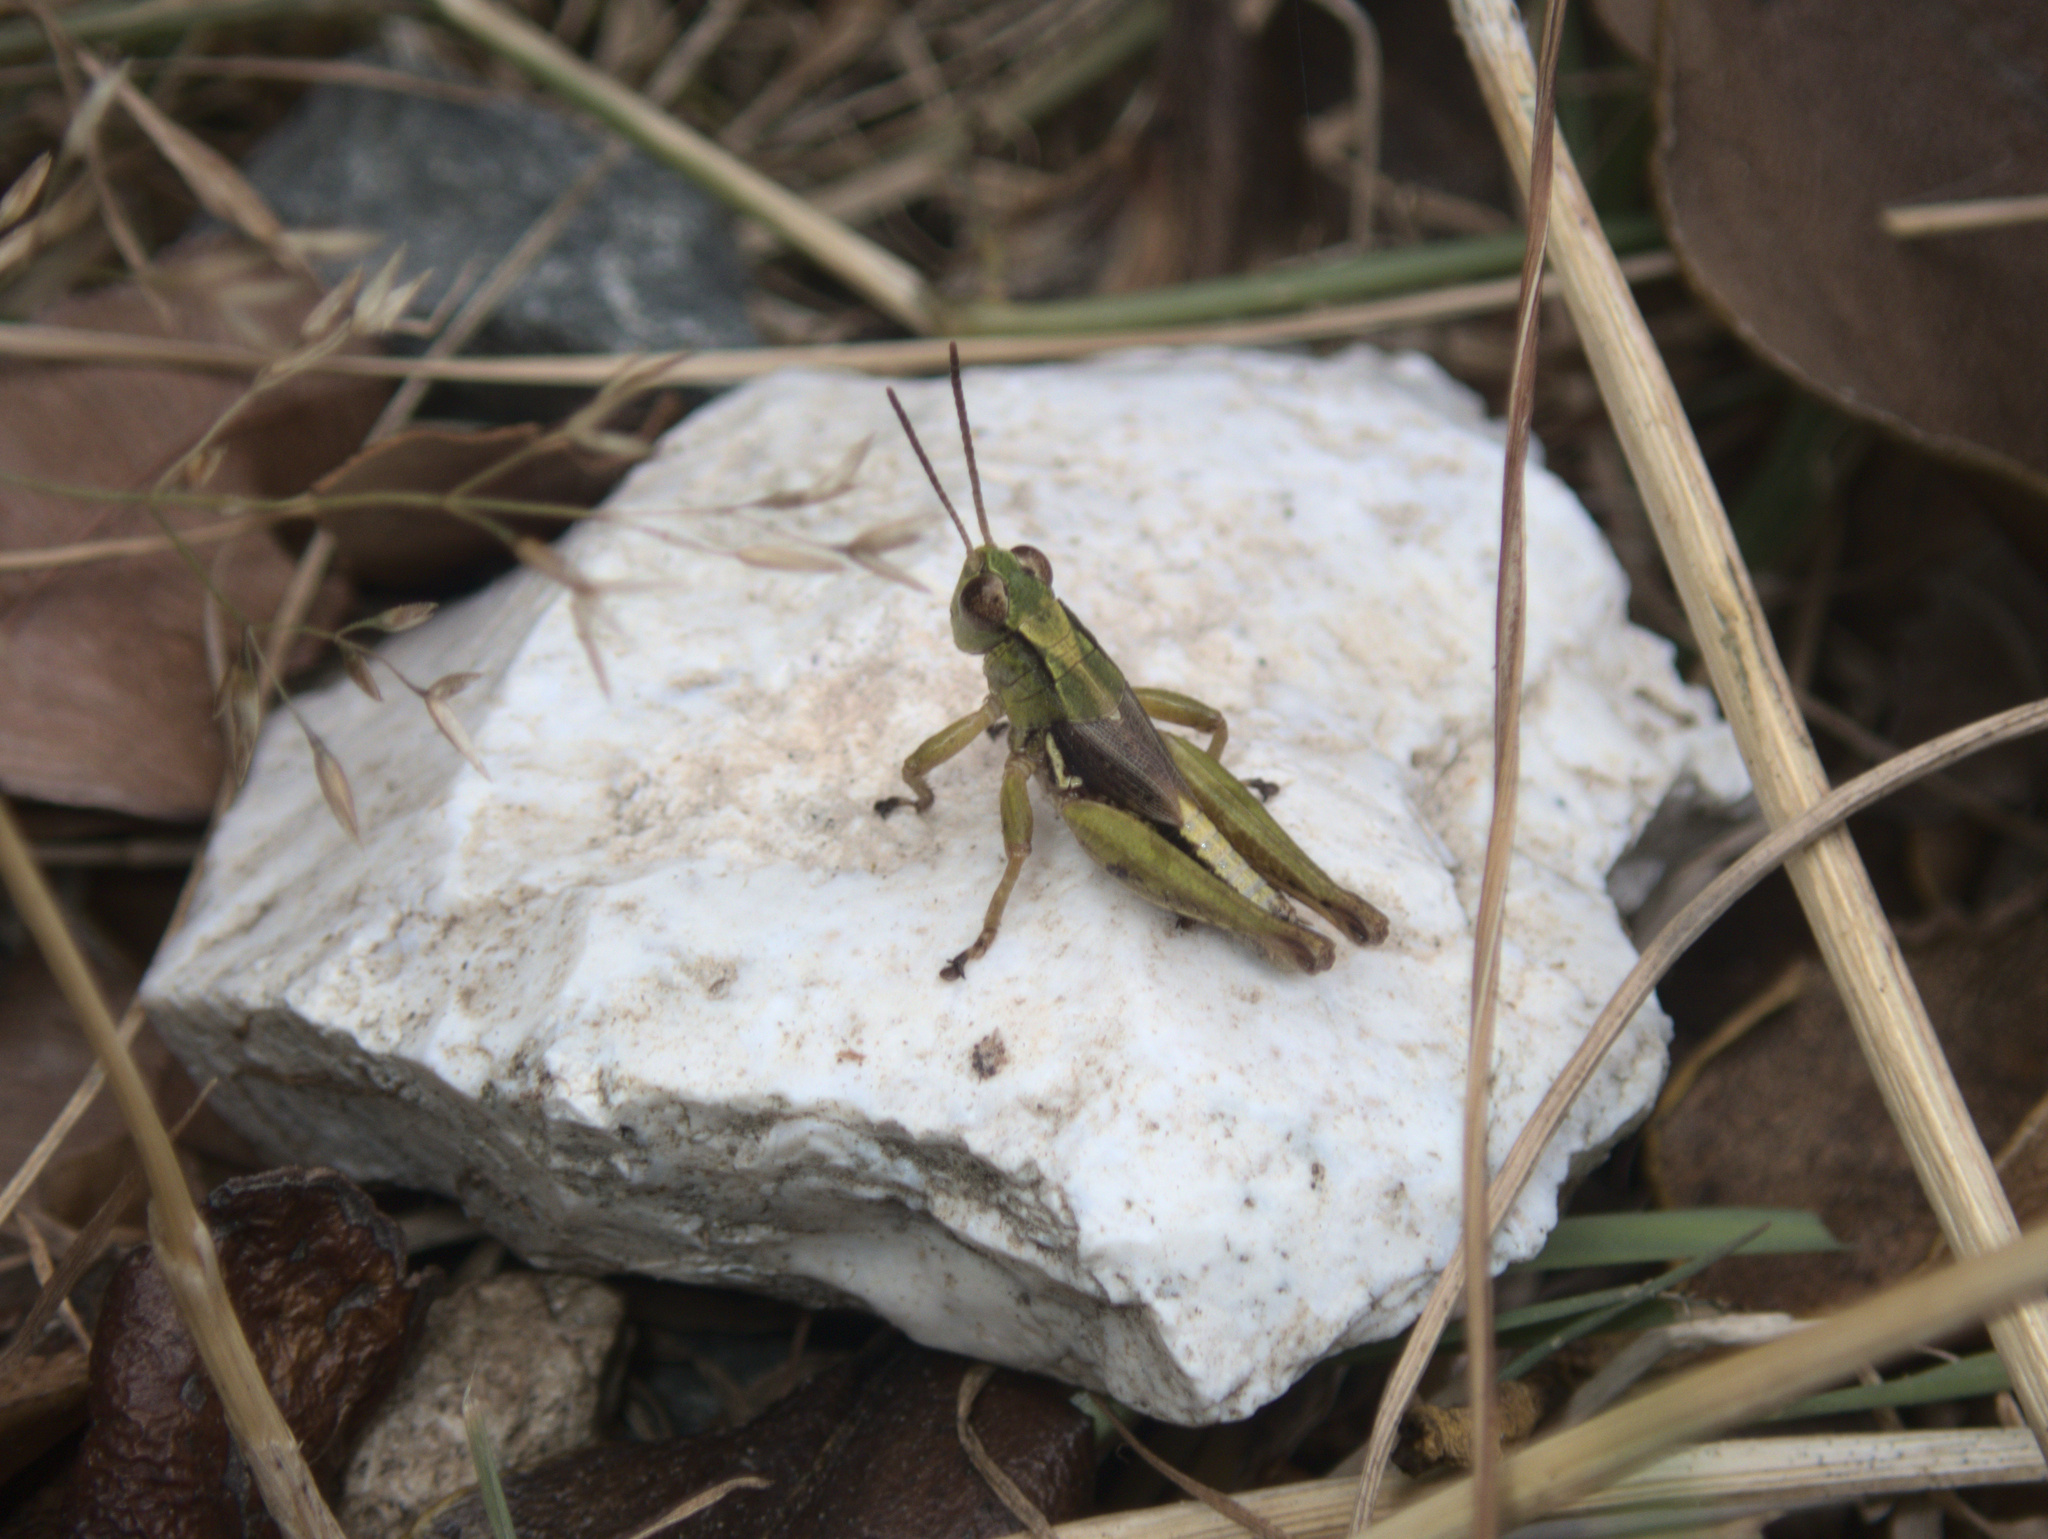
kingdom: Animalia
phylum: Arthropoda
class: Insecta
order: Orthoptera
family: Acrididae
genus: Phaulacridium
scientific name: Phaulacridium marginale
